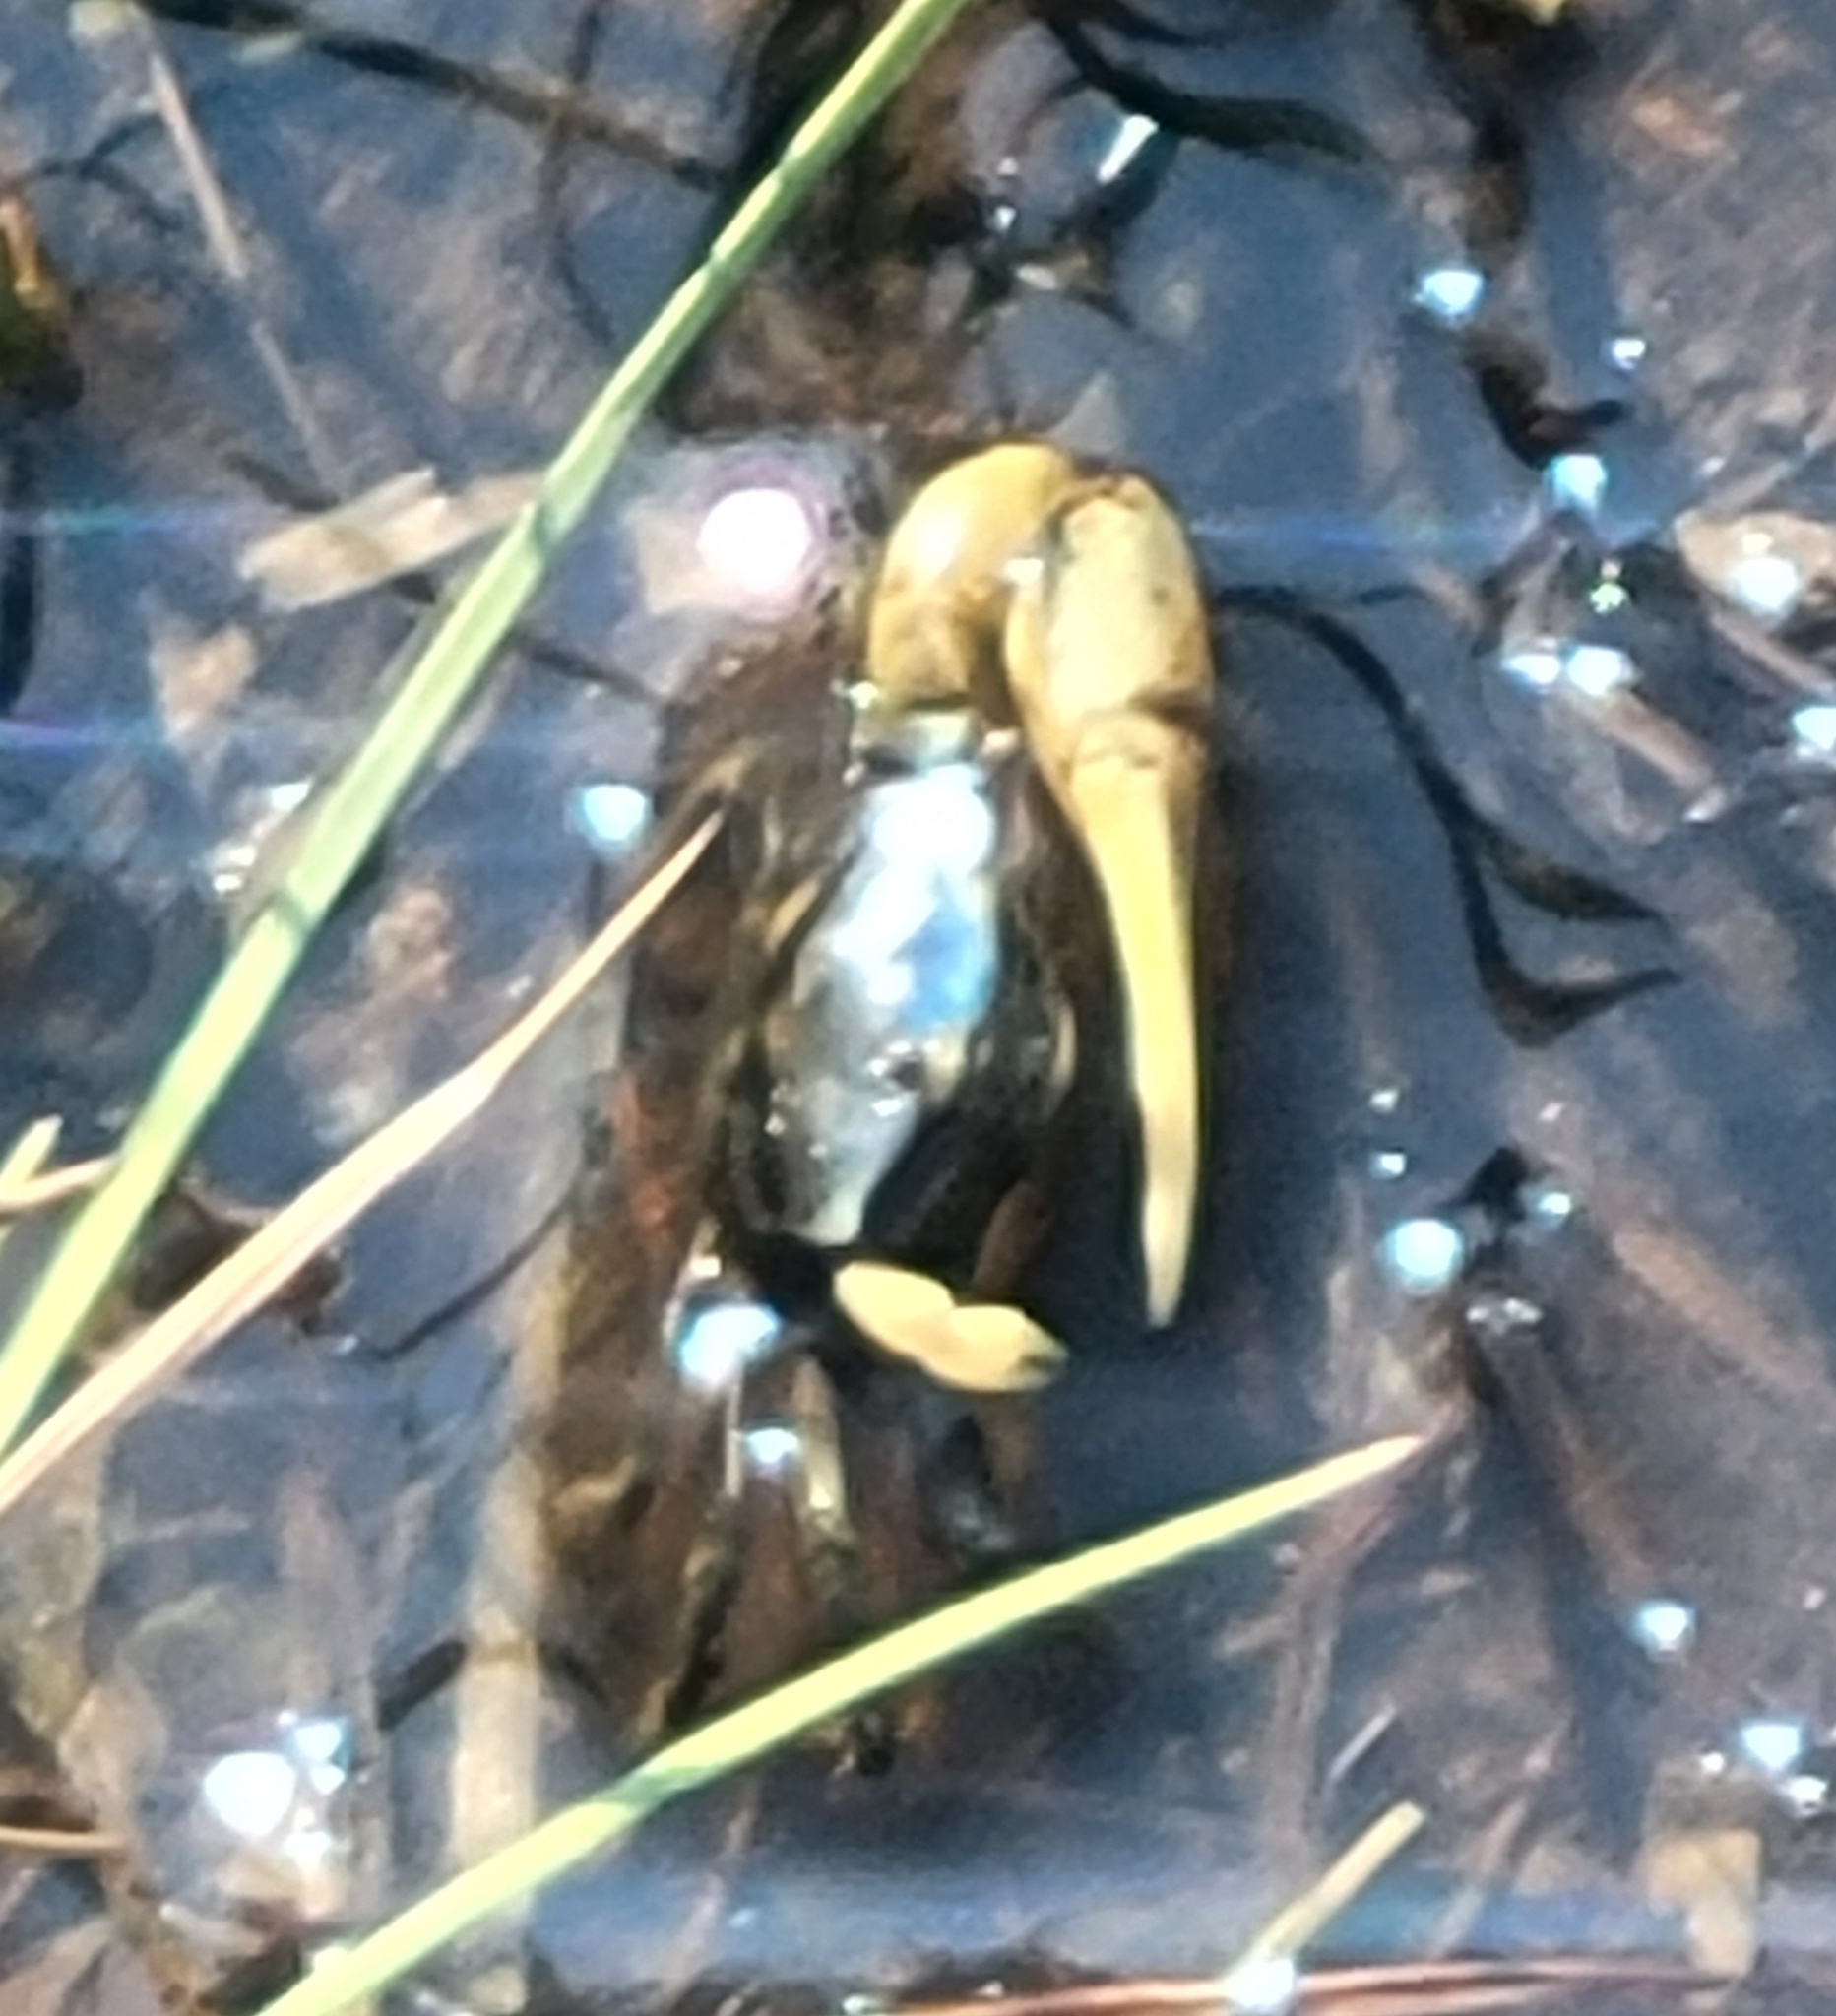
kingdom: Animalia
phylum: Arthropoda
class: Malacostraca
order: Decapoda
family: Ocypodidae
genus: Minuca
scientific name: Minuca pugnax
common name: Mud fiddler crab
